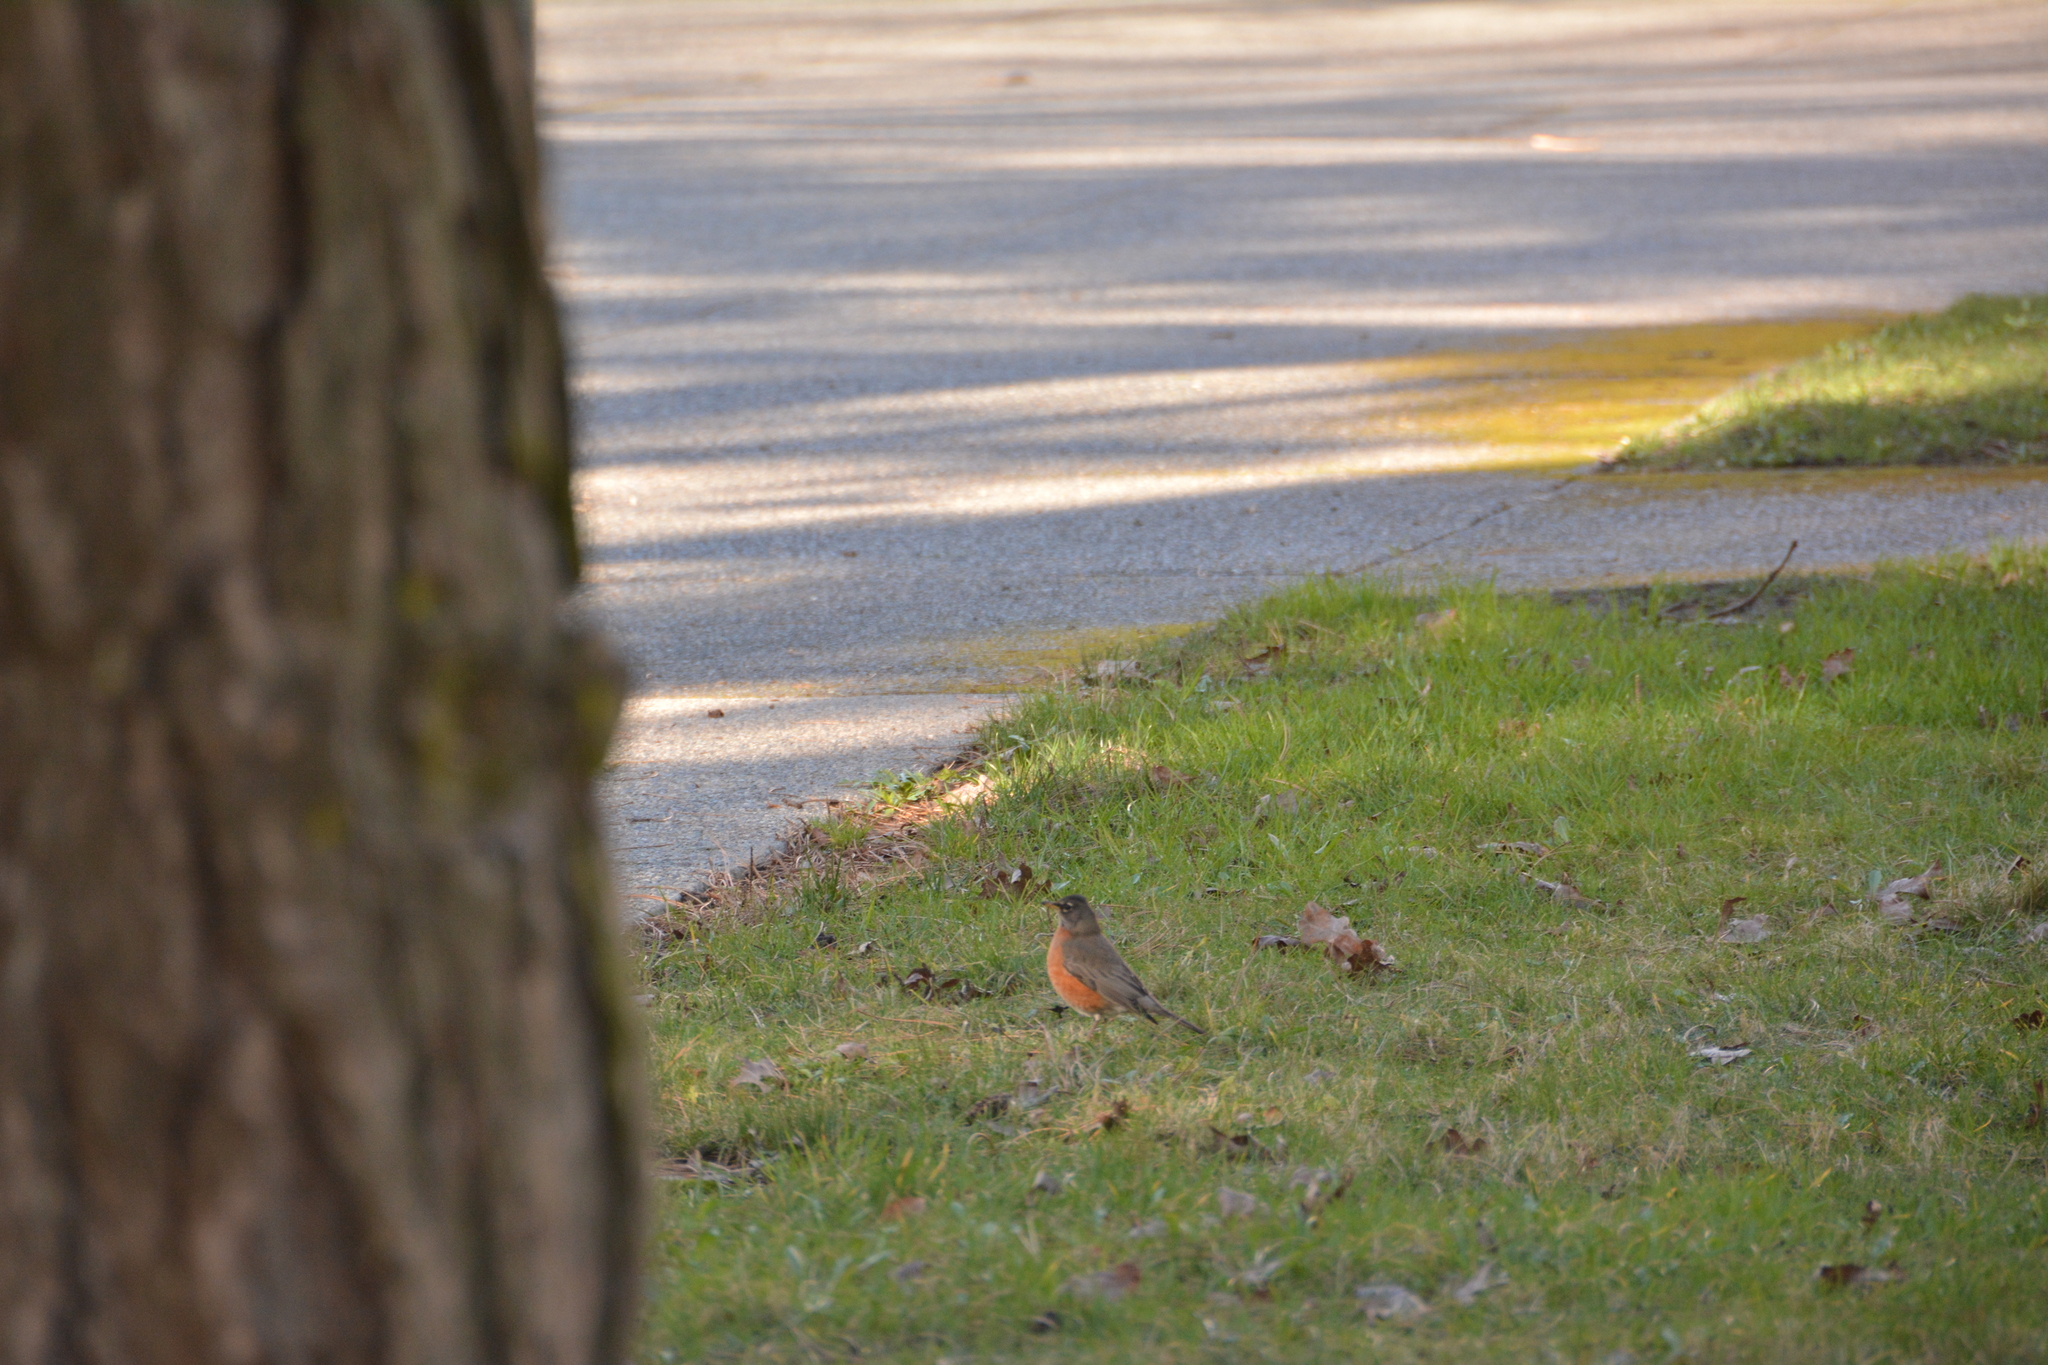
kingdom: Animalia
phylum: Chordata
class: Aves
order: Passeriformes
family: Turdidae
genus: Turdus
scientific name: Turdus migratorius
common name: American robin
